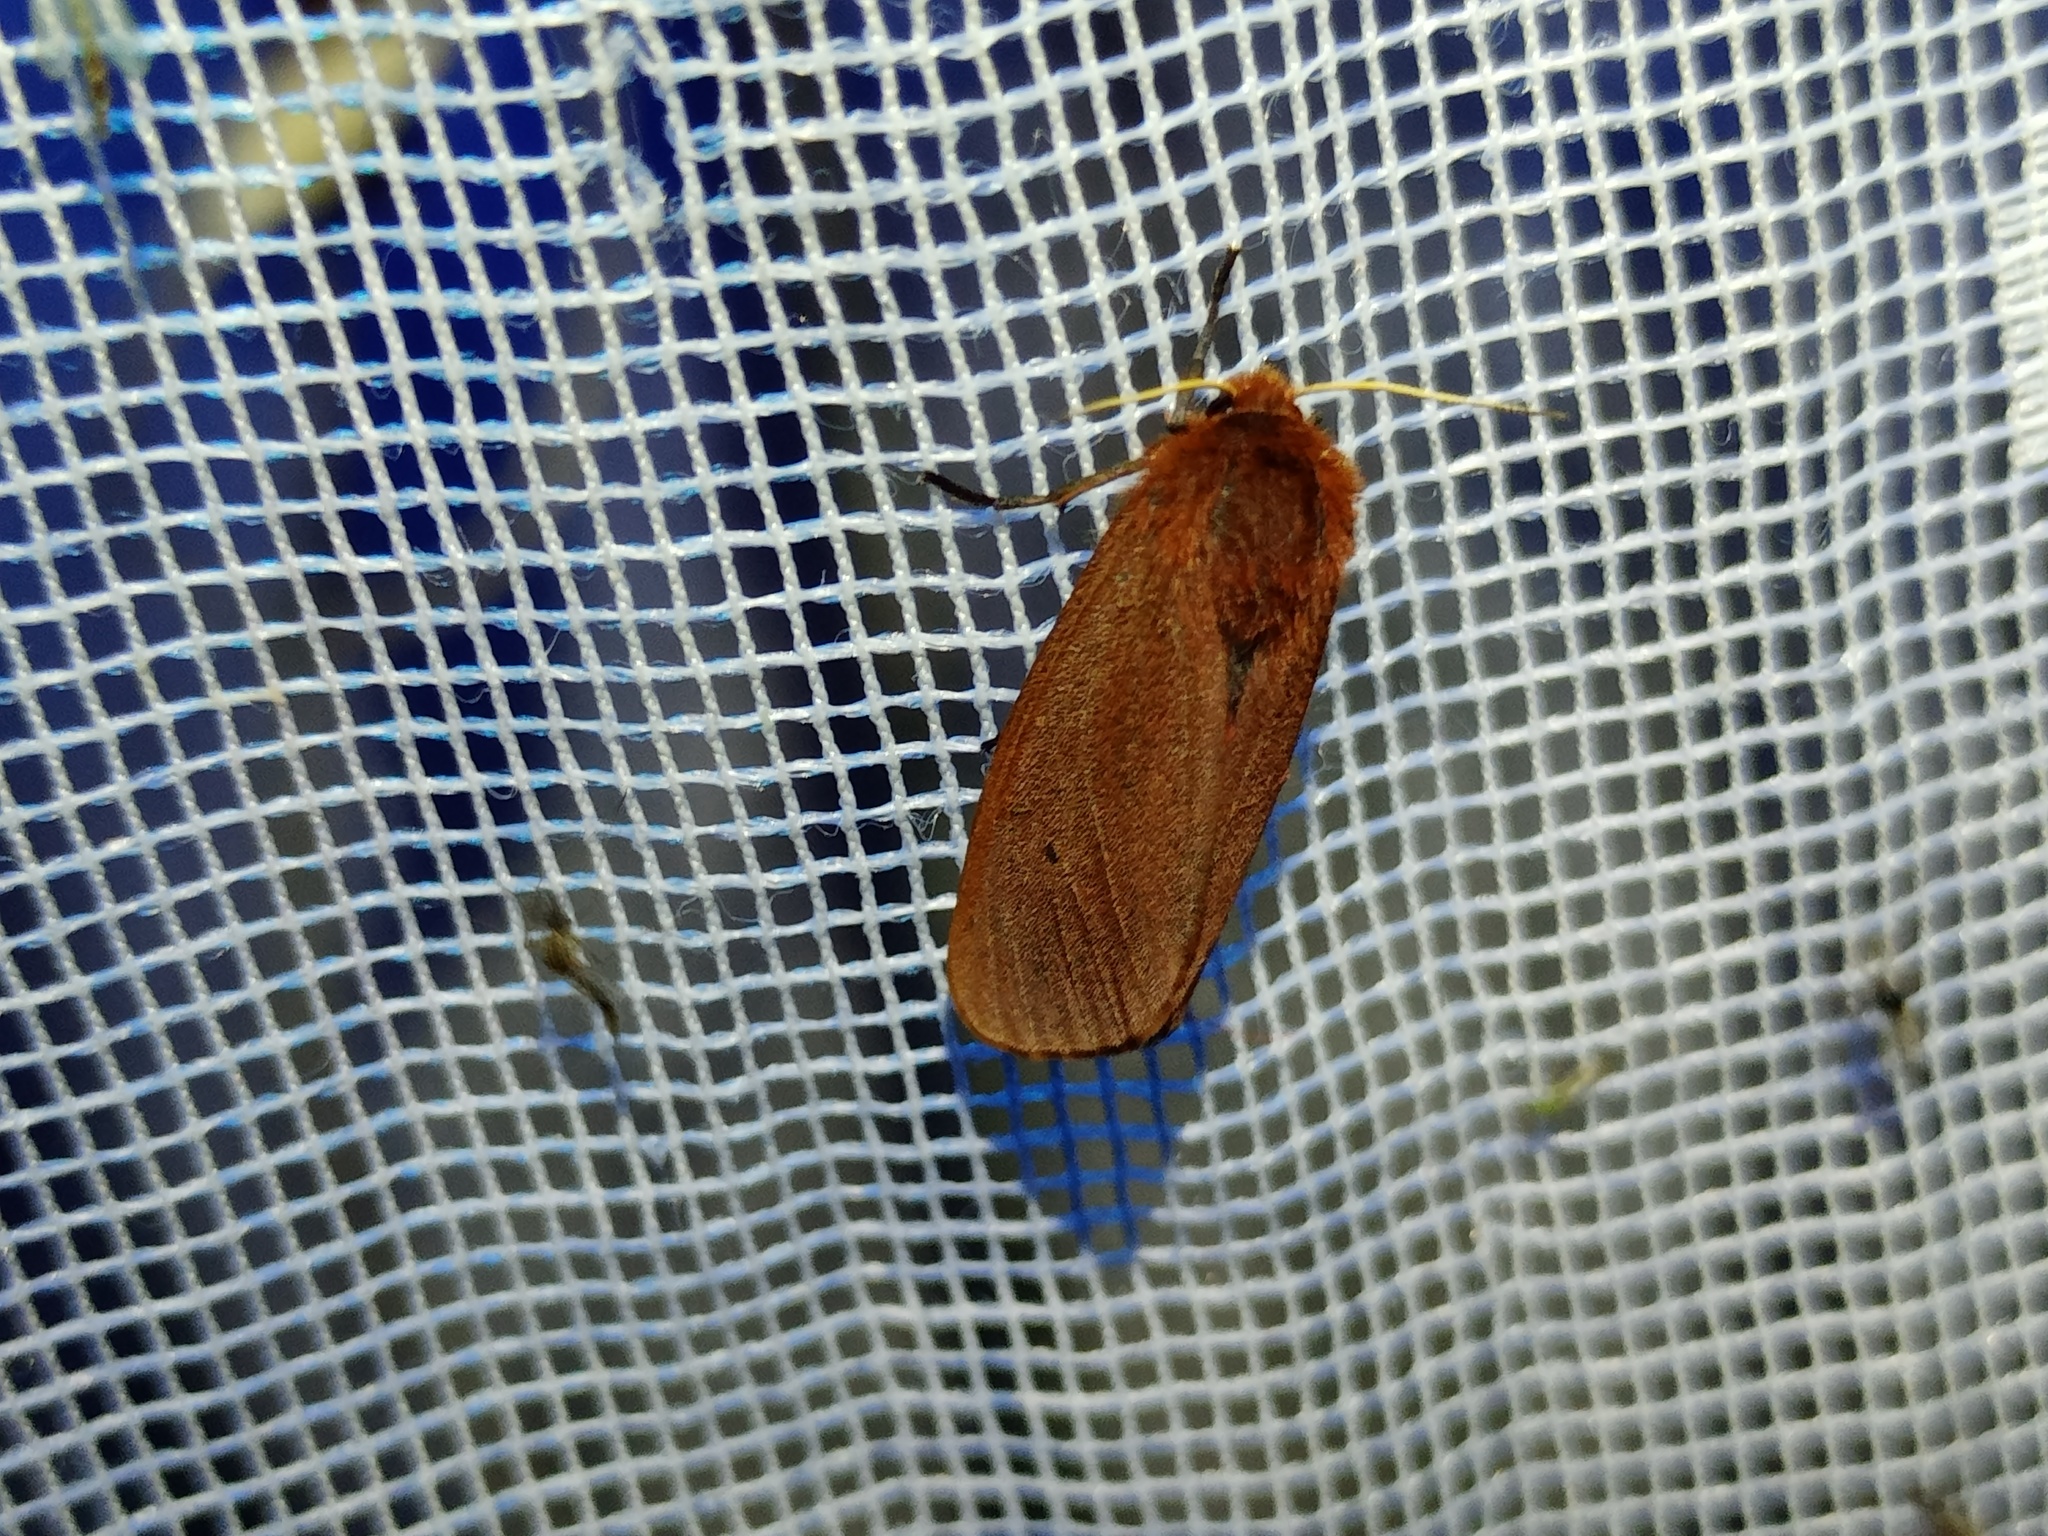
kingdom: Animalia
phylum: Arthropoda
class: Insecta
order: Lepidoptera
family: Erebidae
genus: Phragmatobia
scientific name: Phragmatobia fuliginosa
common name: Ruby tiger
